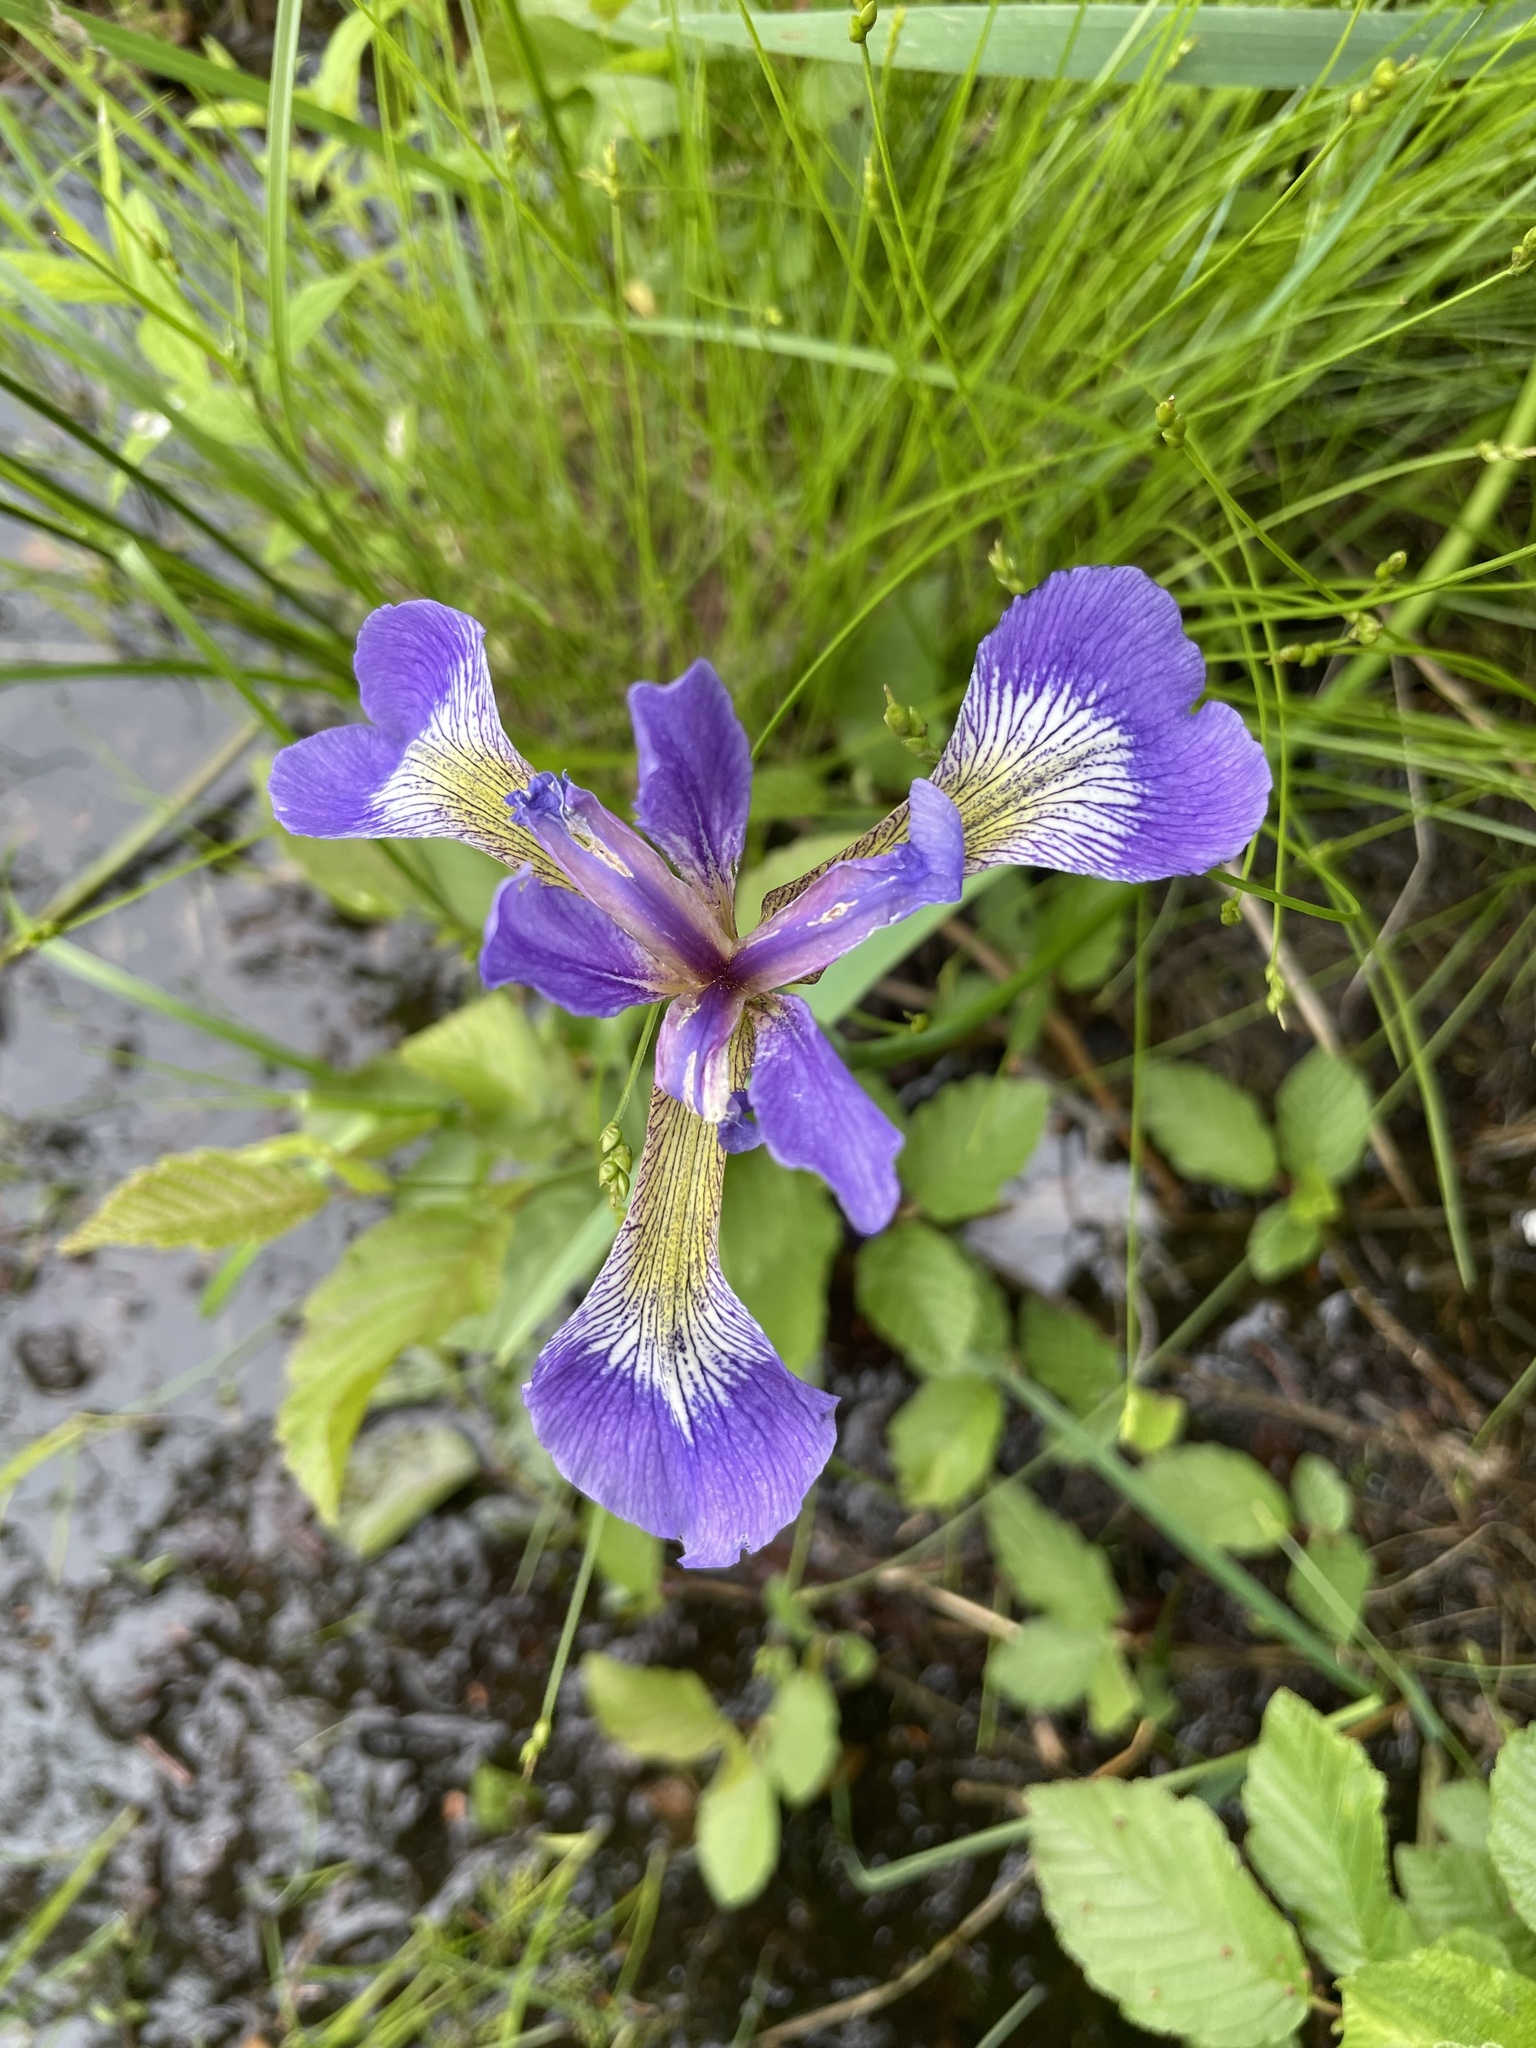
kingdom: Plantae
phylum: Tracheophyta
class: Liliopsida
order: Asparagales
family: Iridaceae
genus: Iris
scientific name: Iris versicolor
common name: Purple iris
